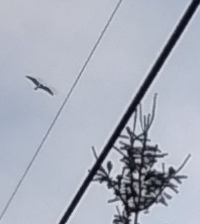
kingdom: Animalia
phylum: Chordata
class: Aves
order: Accipitriformes
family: Pandionidae
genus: Pandion
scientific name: Pandion haliaetus
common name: Osprey
